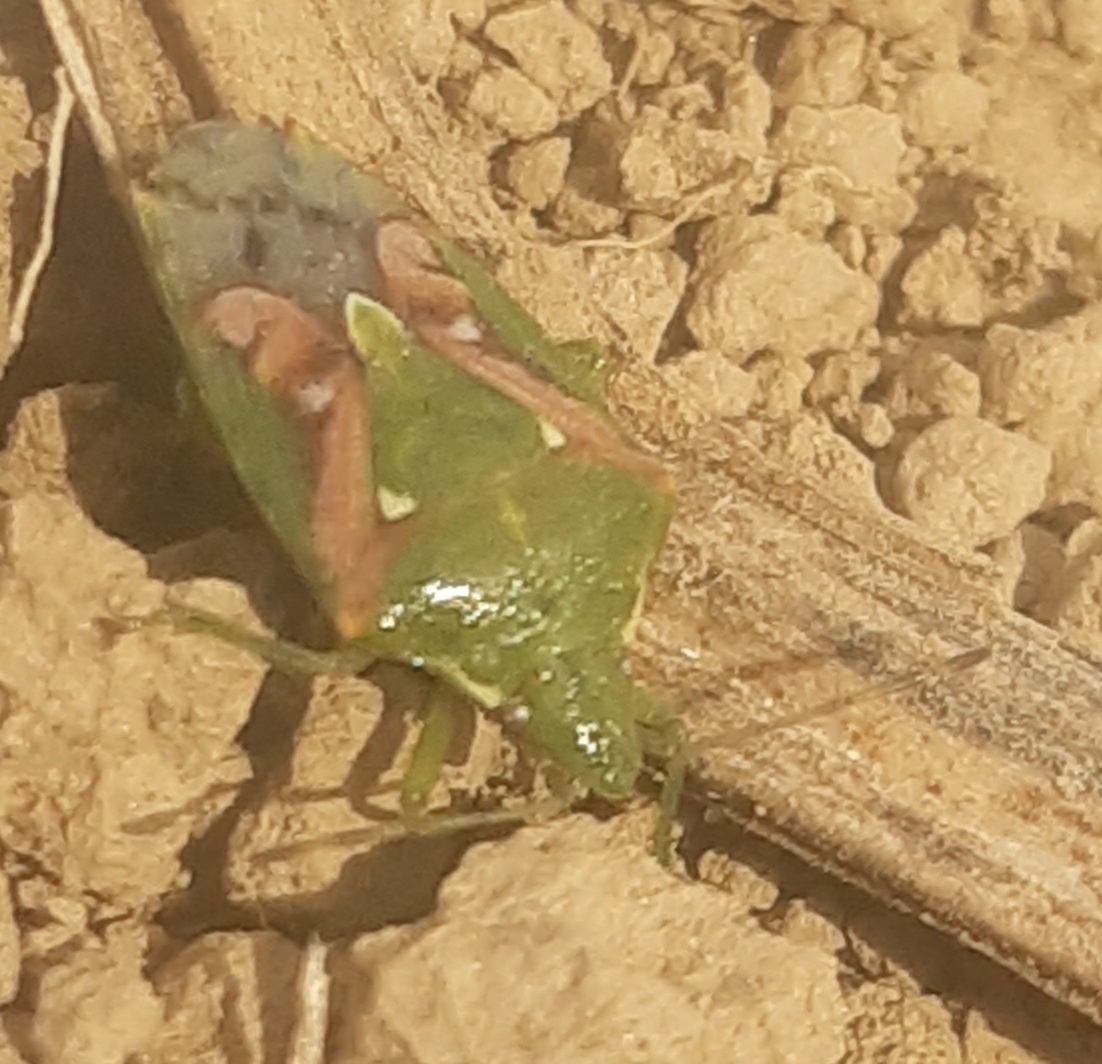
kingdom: Animalia
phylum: Arthropoda
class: Insecta
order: Hemiptera
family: Acanthosomatidae
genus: Cyphostethus
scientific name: Cyphostethus tristriatus
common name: Juniper shieldbug
